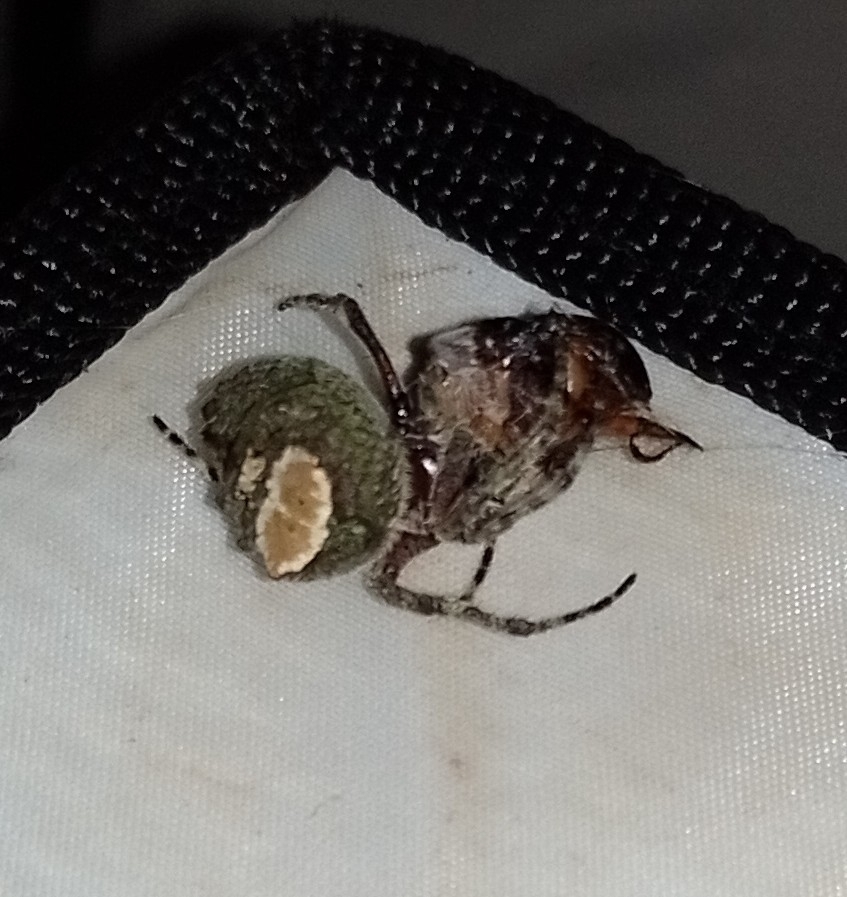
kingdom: Animalia
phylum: Arthropoda
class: Arachnida
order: Araneae
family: Araneidae
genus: Parawixia
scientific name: Parawixia audax
